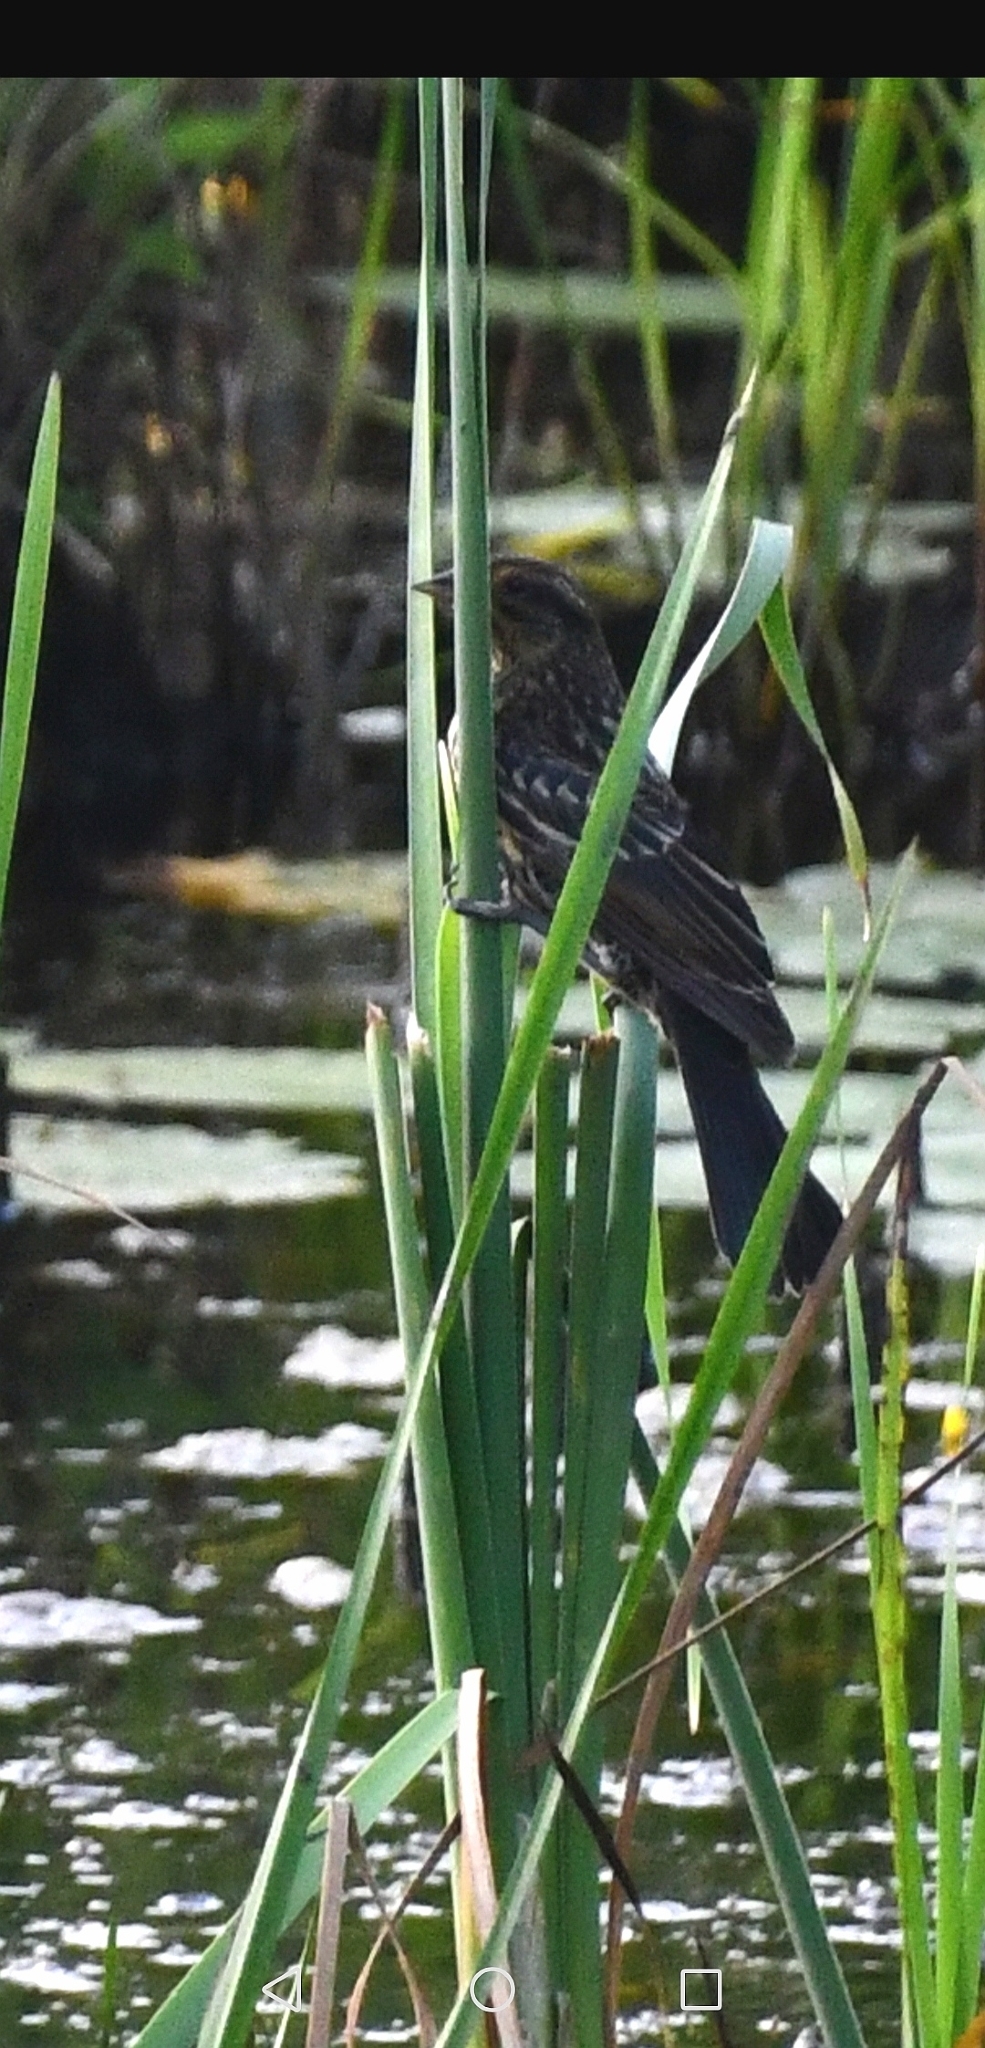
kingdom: Animalia
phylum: Chordata
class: Aves
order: Passeriformes
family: Icteridae
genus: Agelaius
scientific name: Agelaius phoeniceus
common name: Red-winged blackbird
